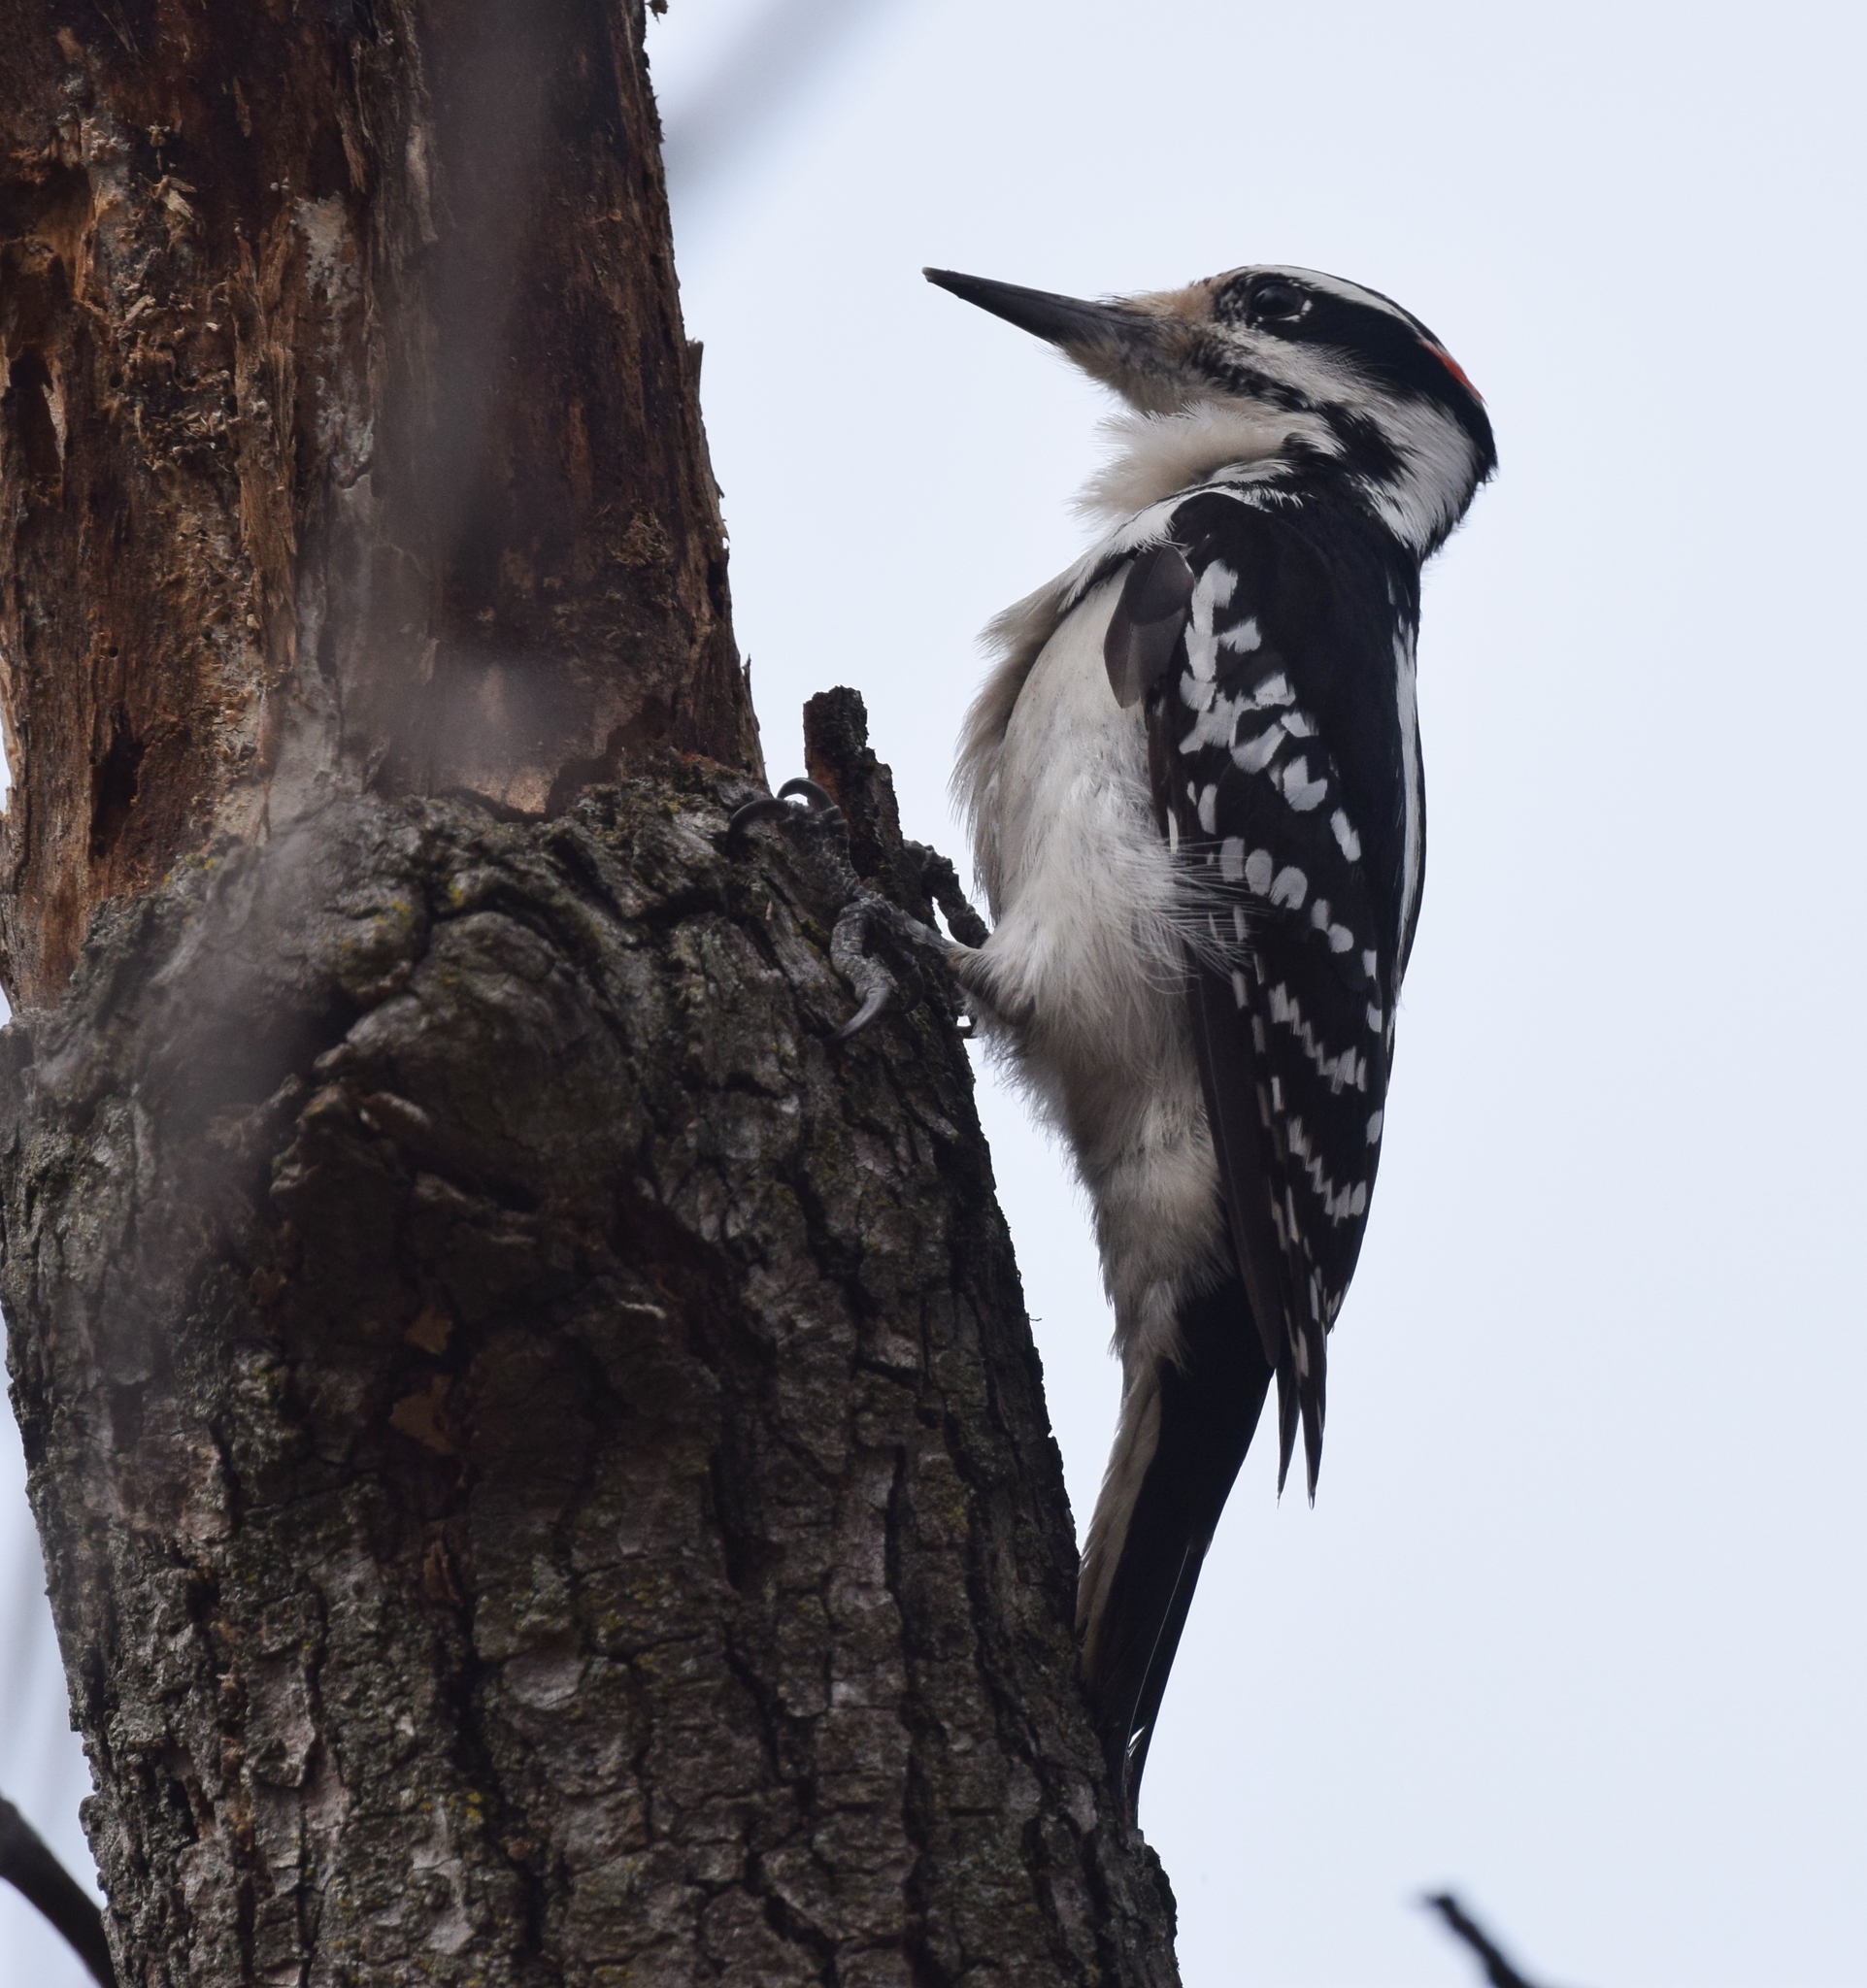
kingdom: Animalia
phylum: Chordata
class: Aves
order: Piciformes
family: Picidae
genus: Leuconotopicus
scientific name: Leuconotopicus villosus
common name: Hairy woodpecker
